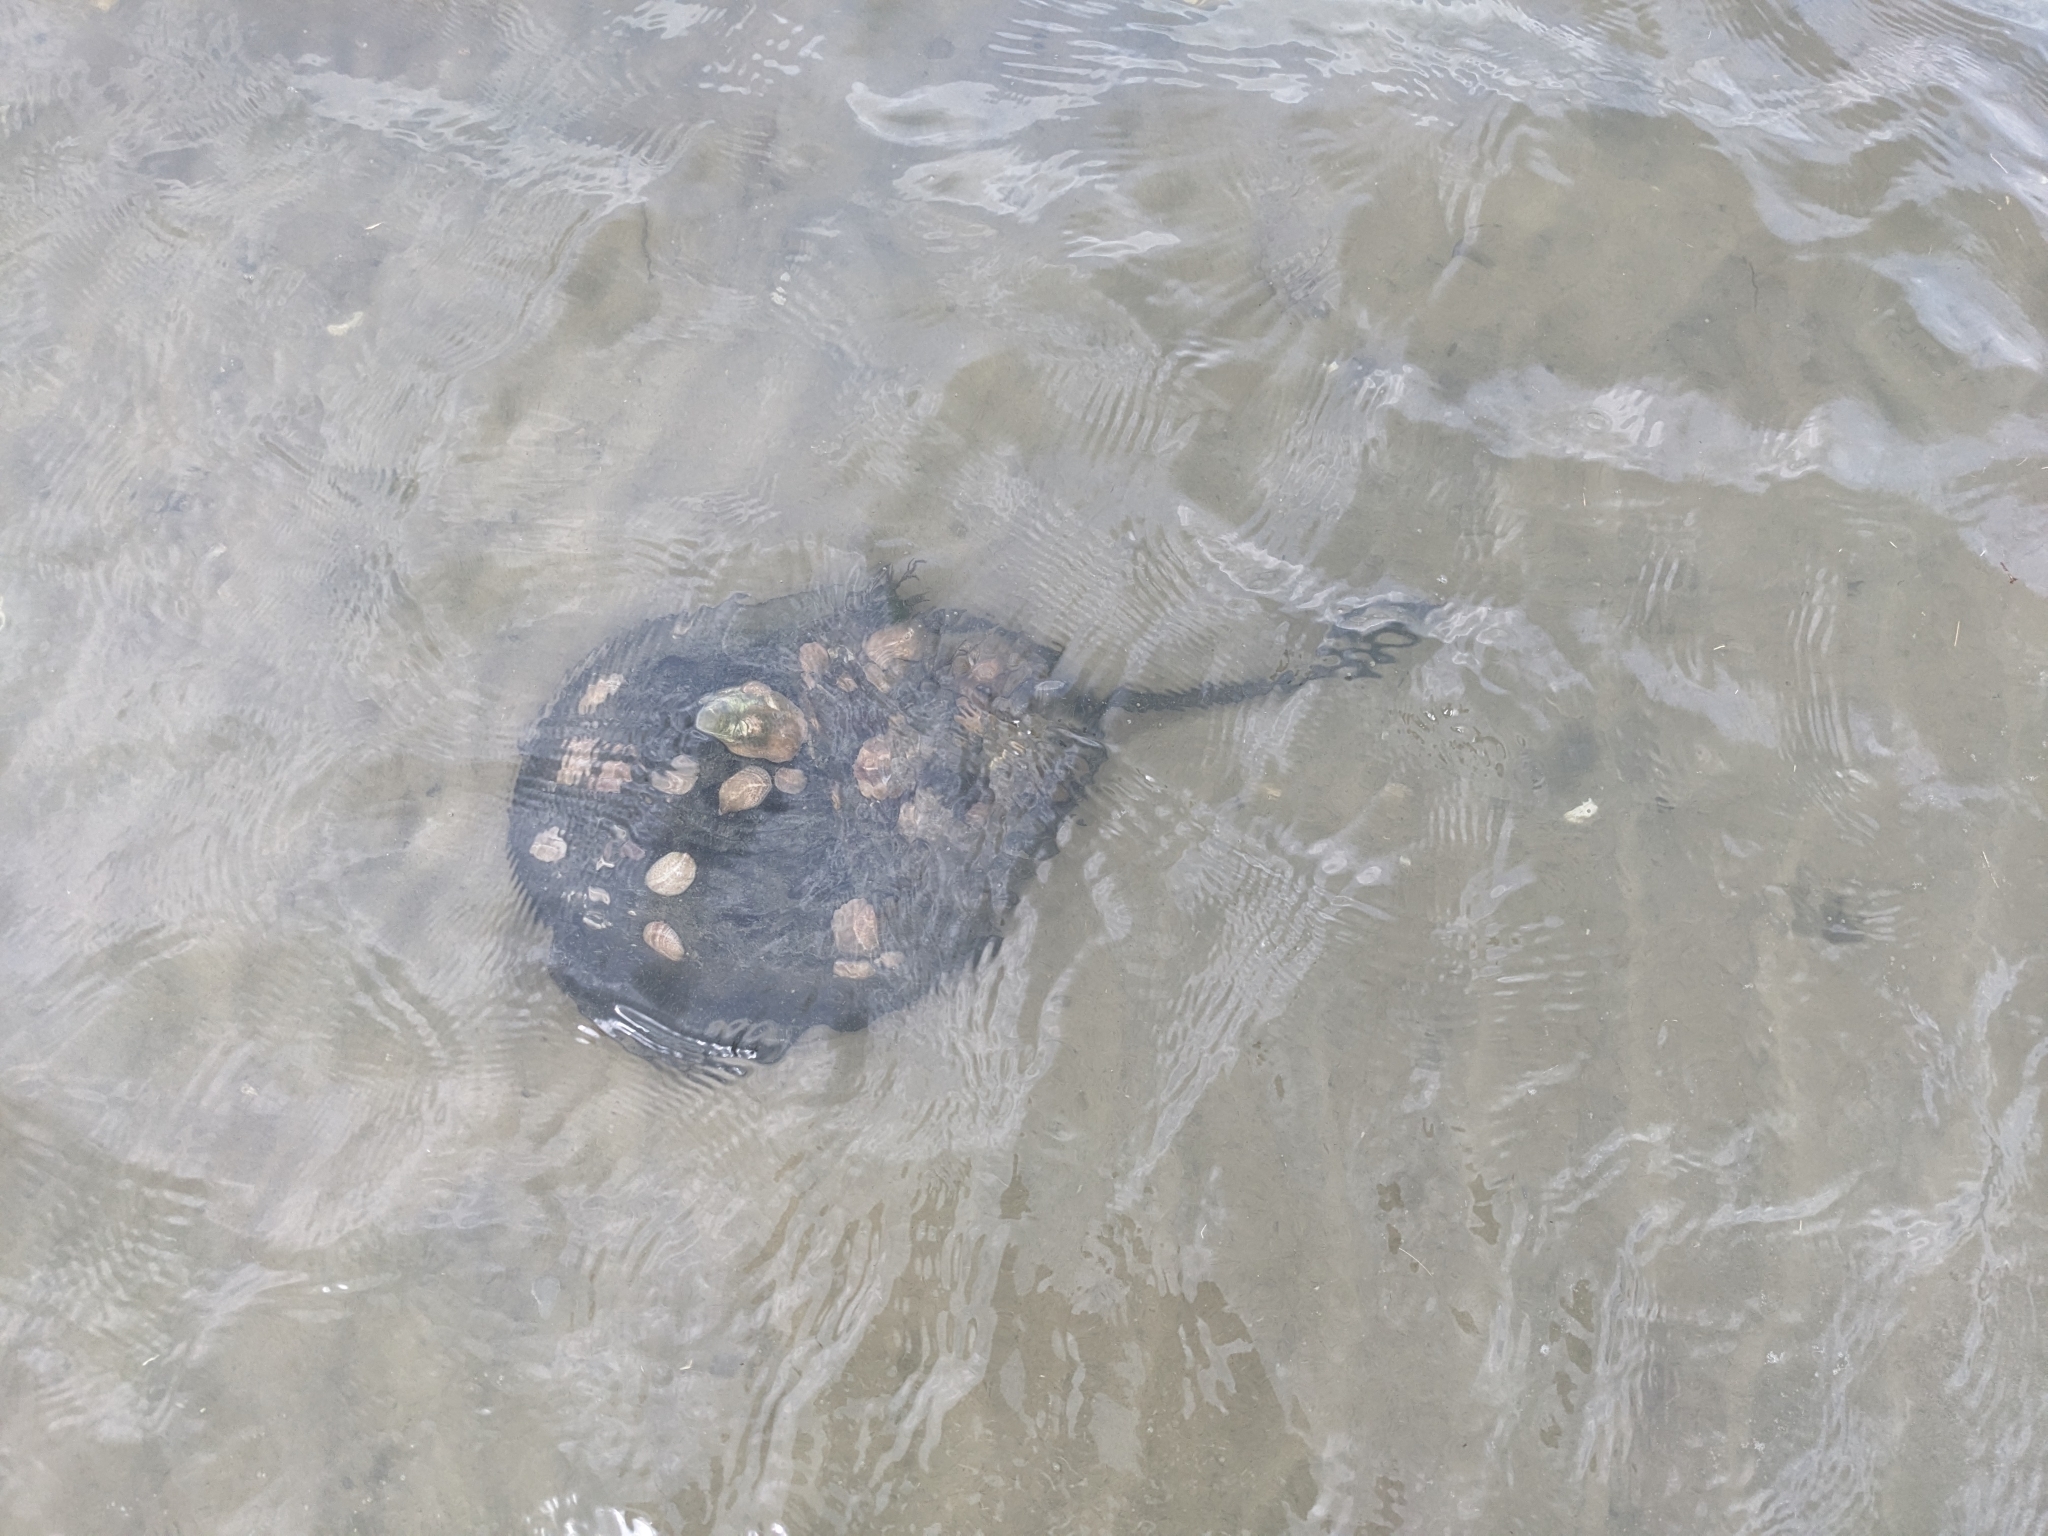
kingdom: Animalia
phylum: Arthropoda
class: Merostomata
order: Xiphosurida
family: Limulidae
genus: Limulus
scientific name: Limulus polyphemus
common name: Horseshoe crab
